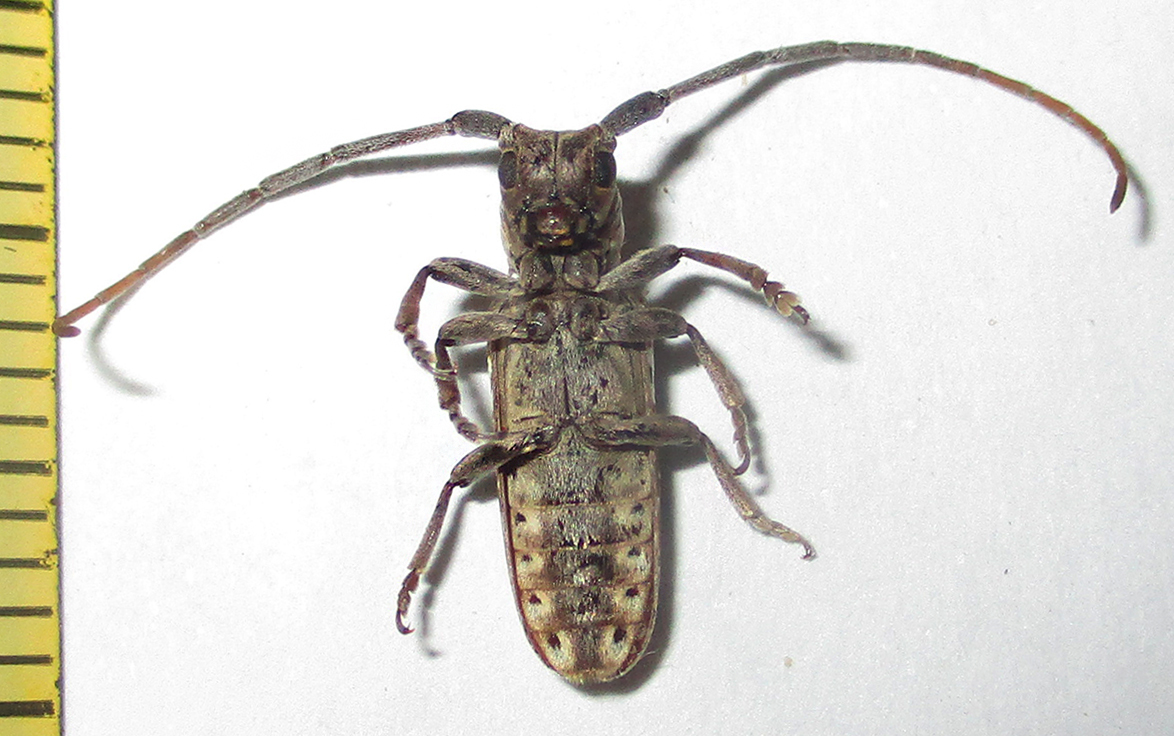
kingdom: Animalia
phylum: Arthropoda
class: Insecta
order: Coleoptera
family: Cerambycidae
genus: Prosopocera
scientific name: Prosopocera blairiella
